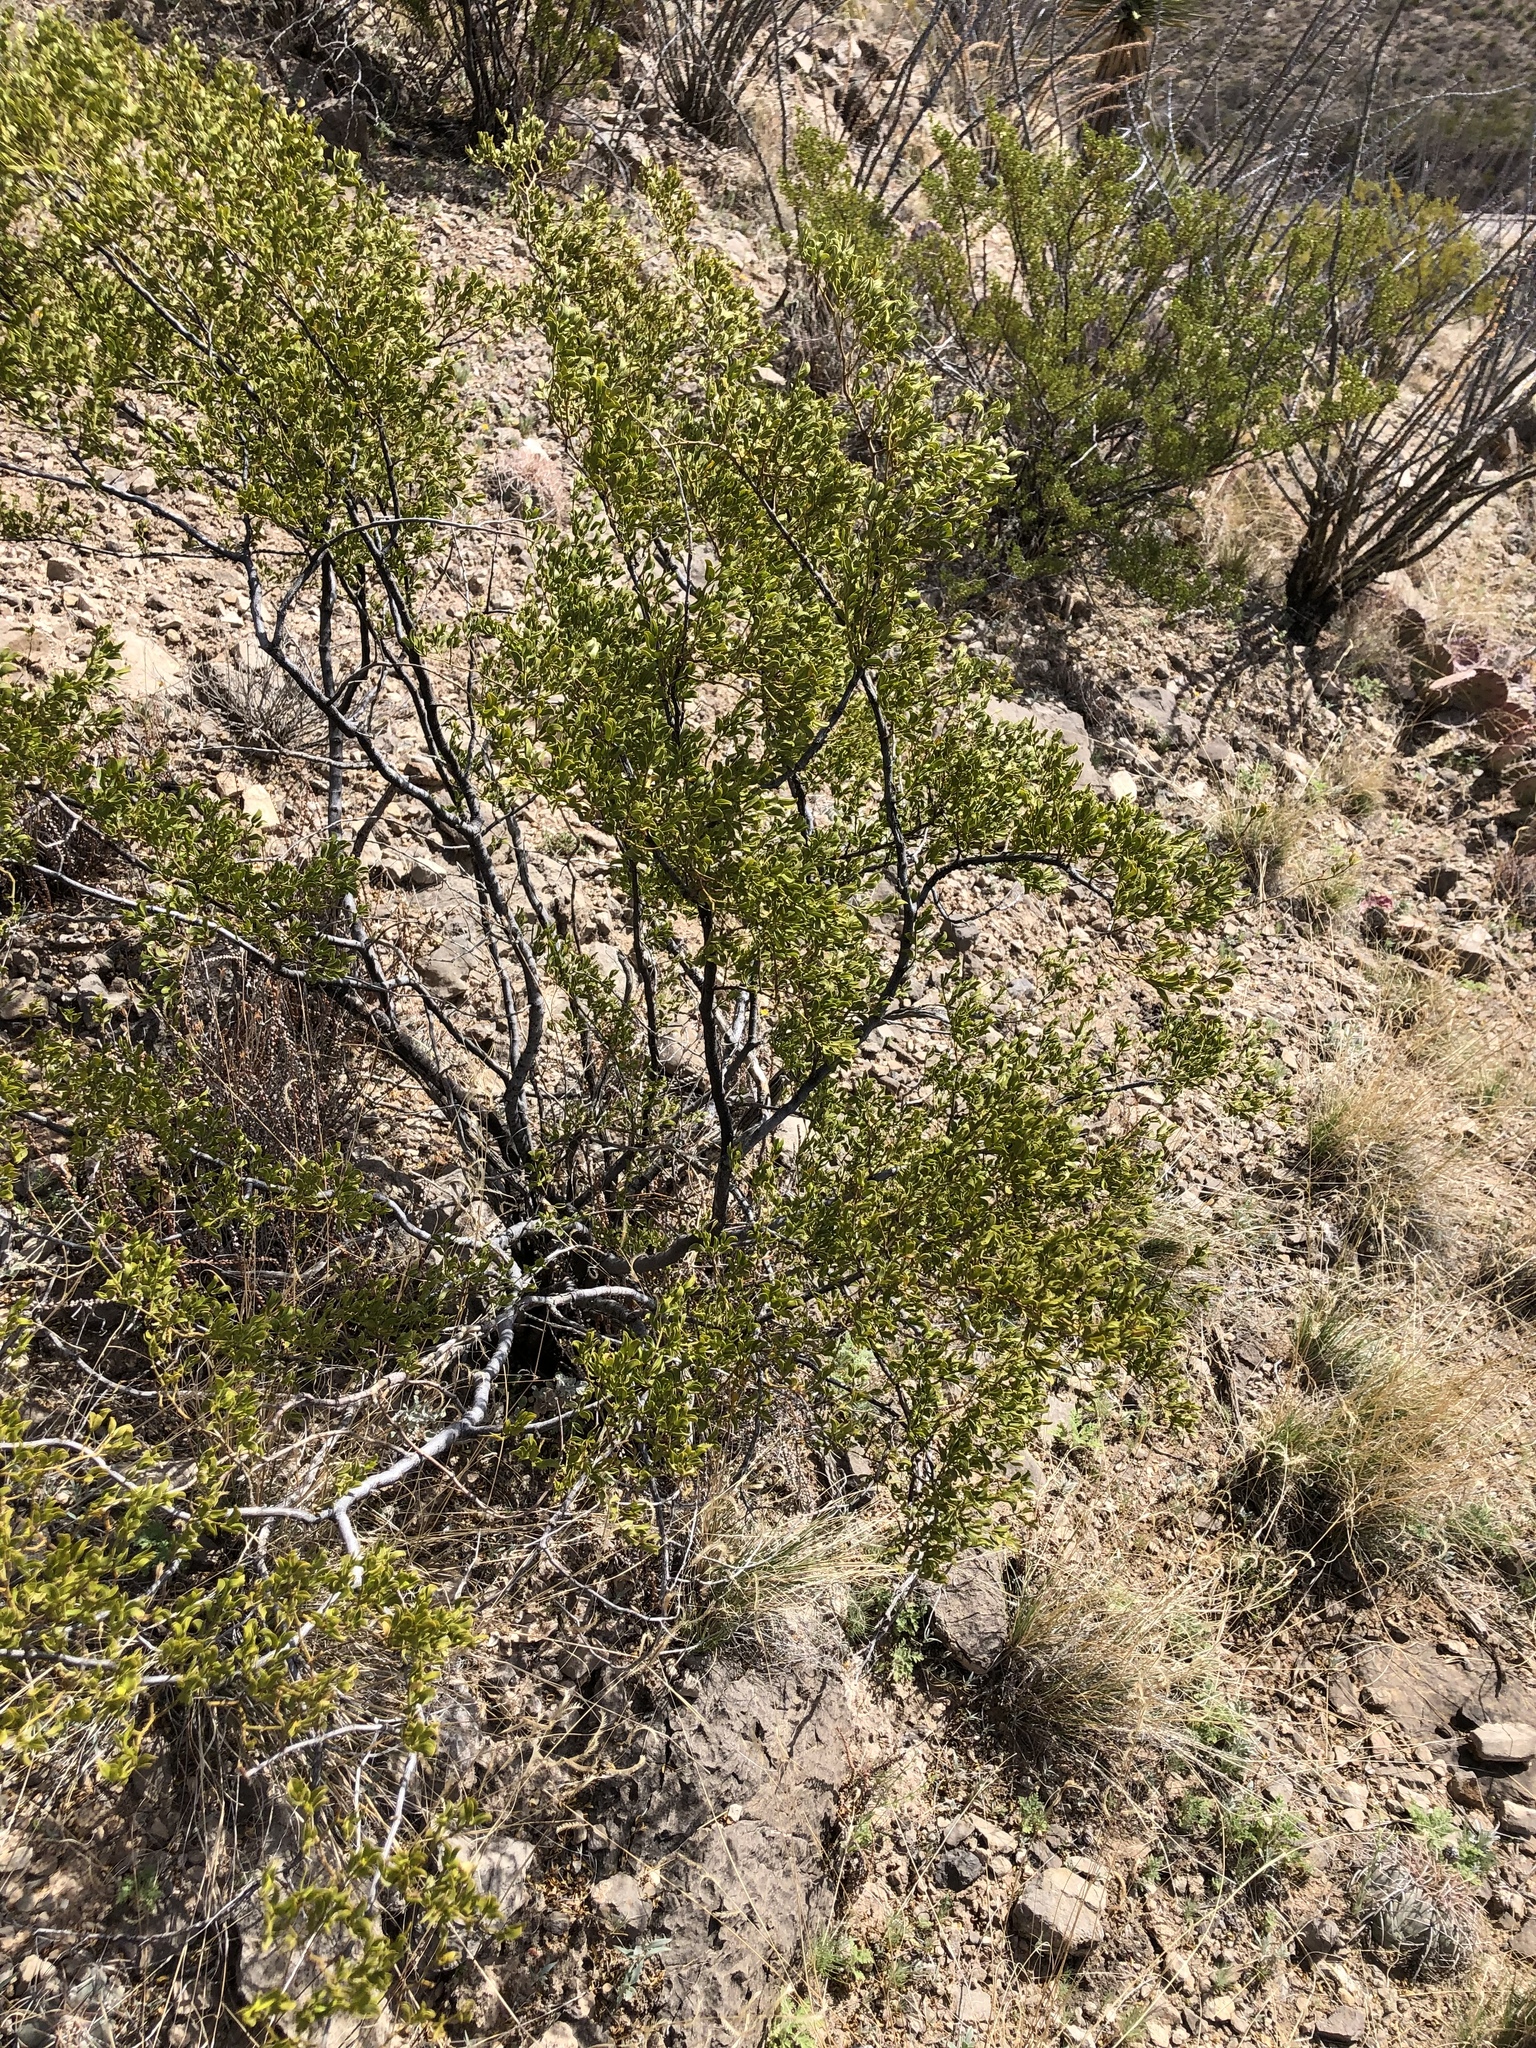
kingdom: Plantae
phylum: Tracheophyta
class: Magnoliopsida
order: Zygophyllales
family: Zygophyllaceae
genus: Larrea
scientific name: Larrea tridentata
